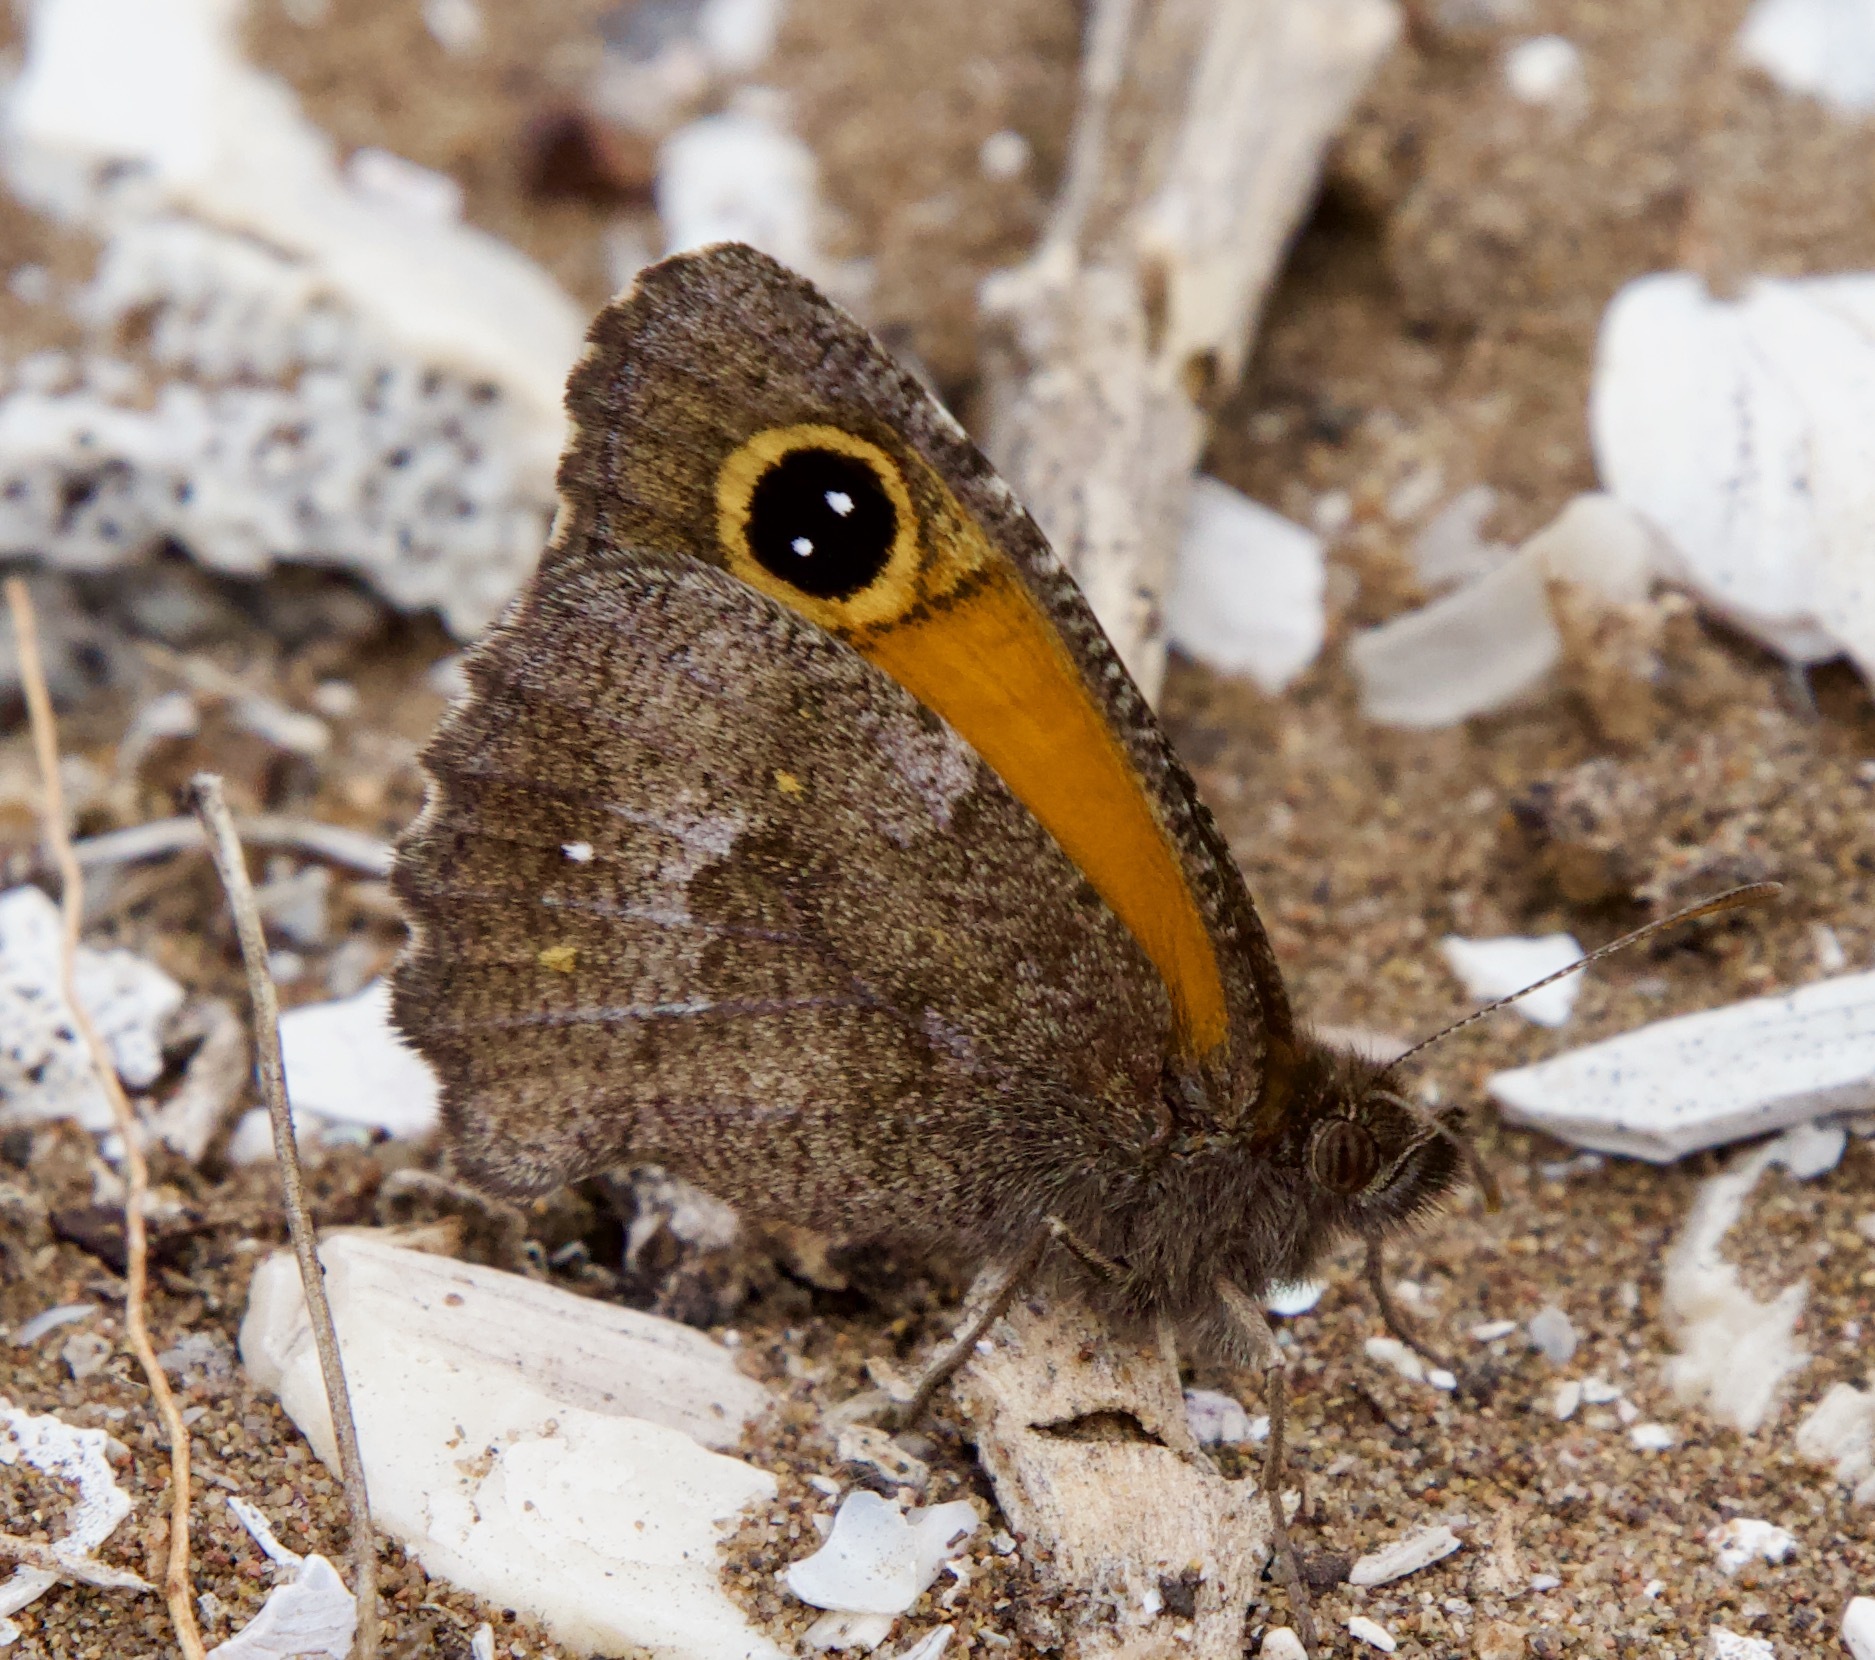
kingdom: Animalia
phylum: Arthropoda
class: Insecta
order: Lepidoptera
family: Nymphalidae
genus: Auca
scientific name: Auca coctei
